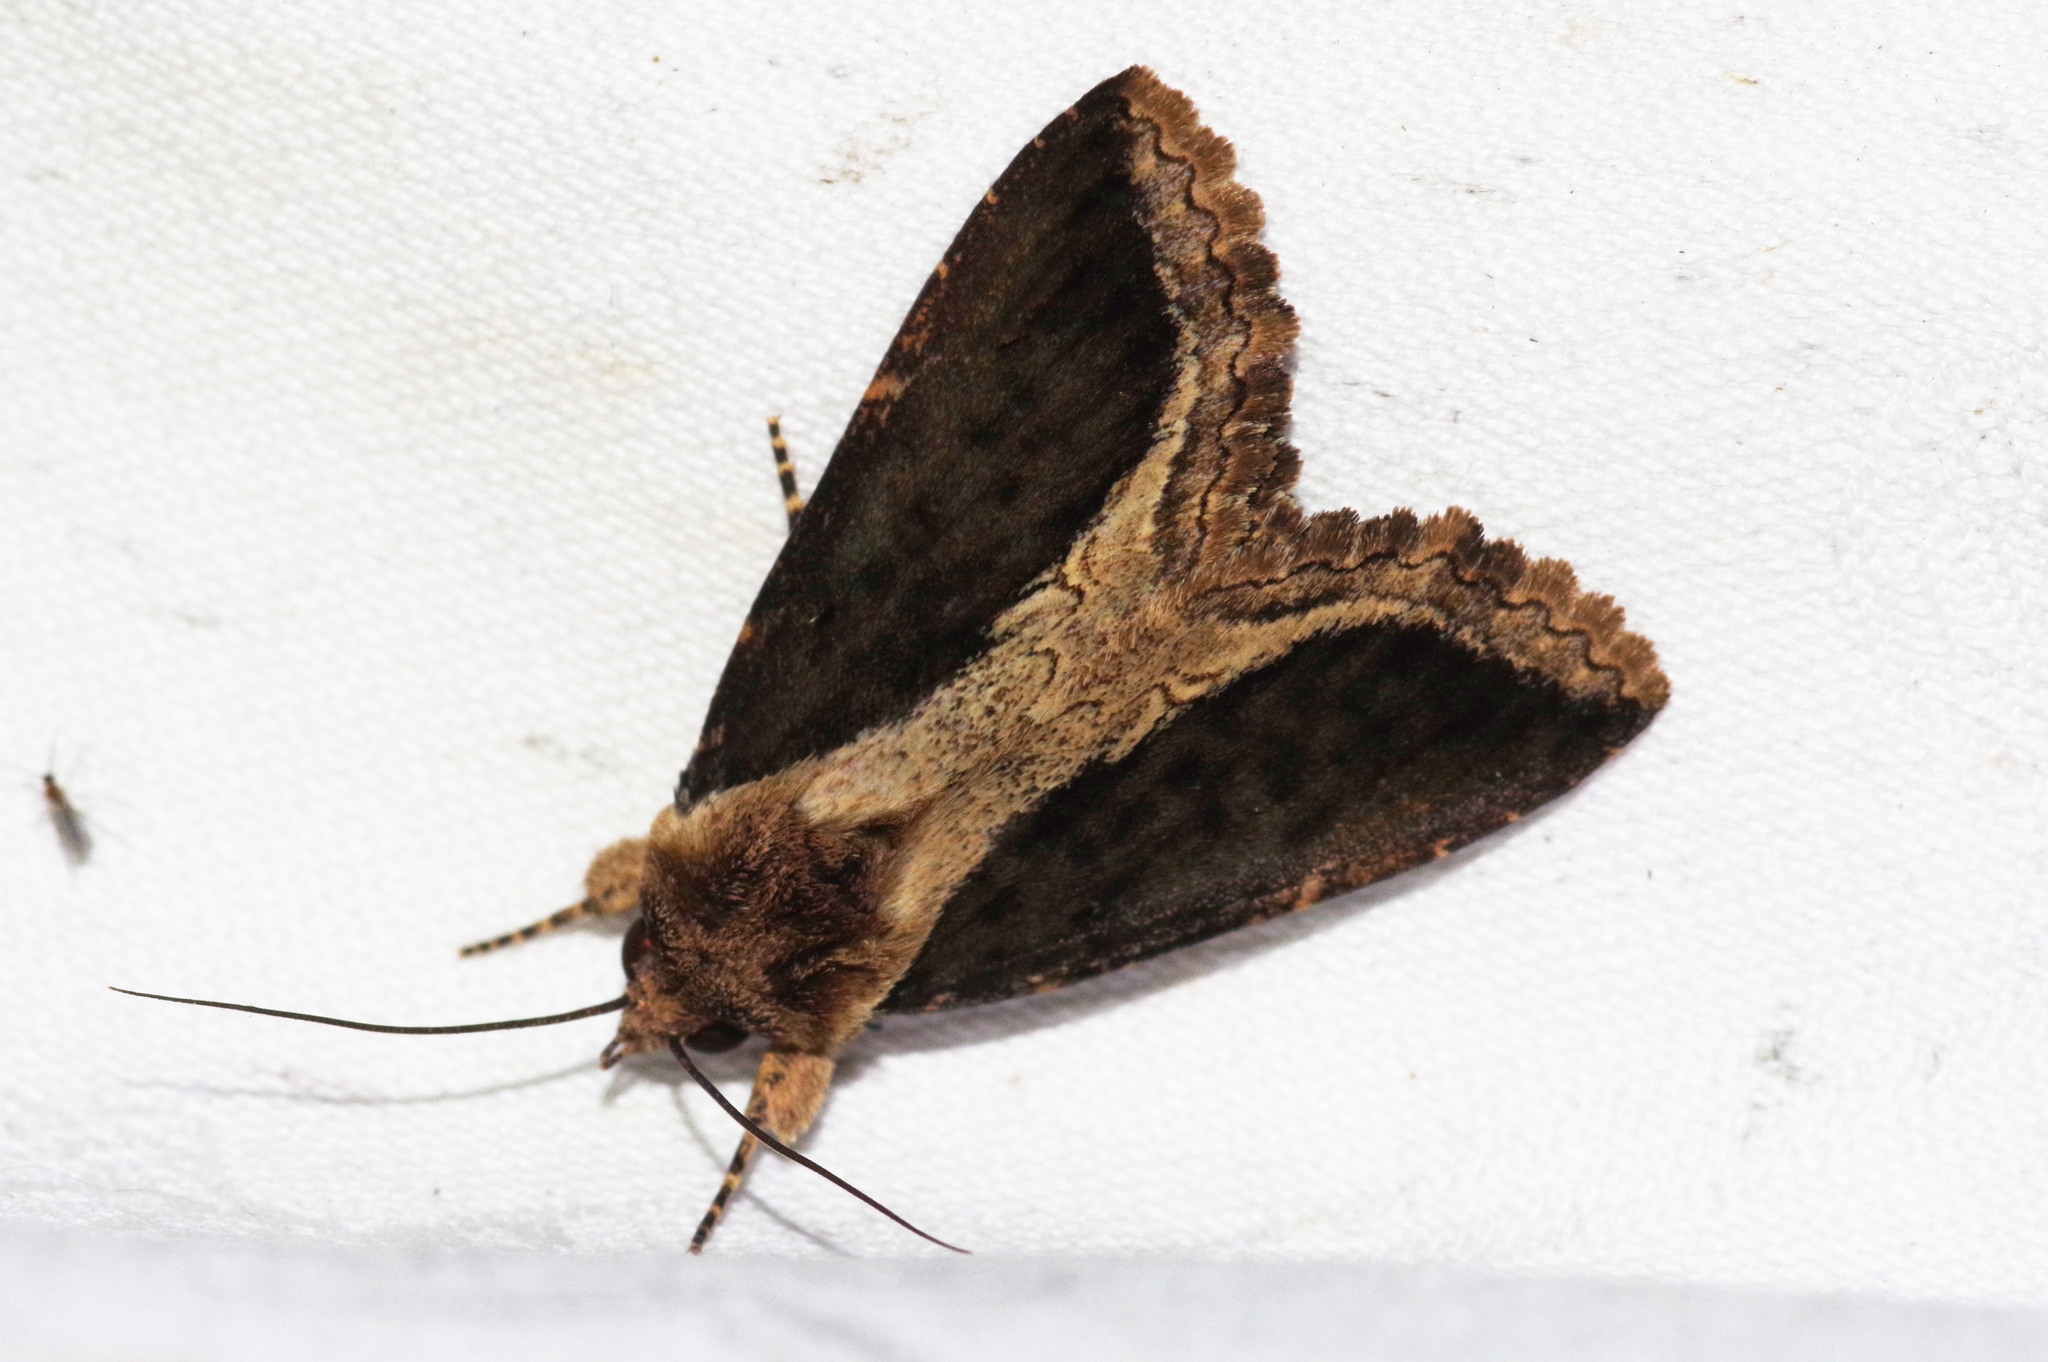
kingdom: Animalia
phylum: Arthropoda
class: Insecta
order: Lepidoptera
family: Erebidae
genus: Ercheia
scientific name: Ercheia dubia
